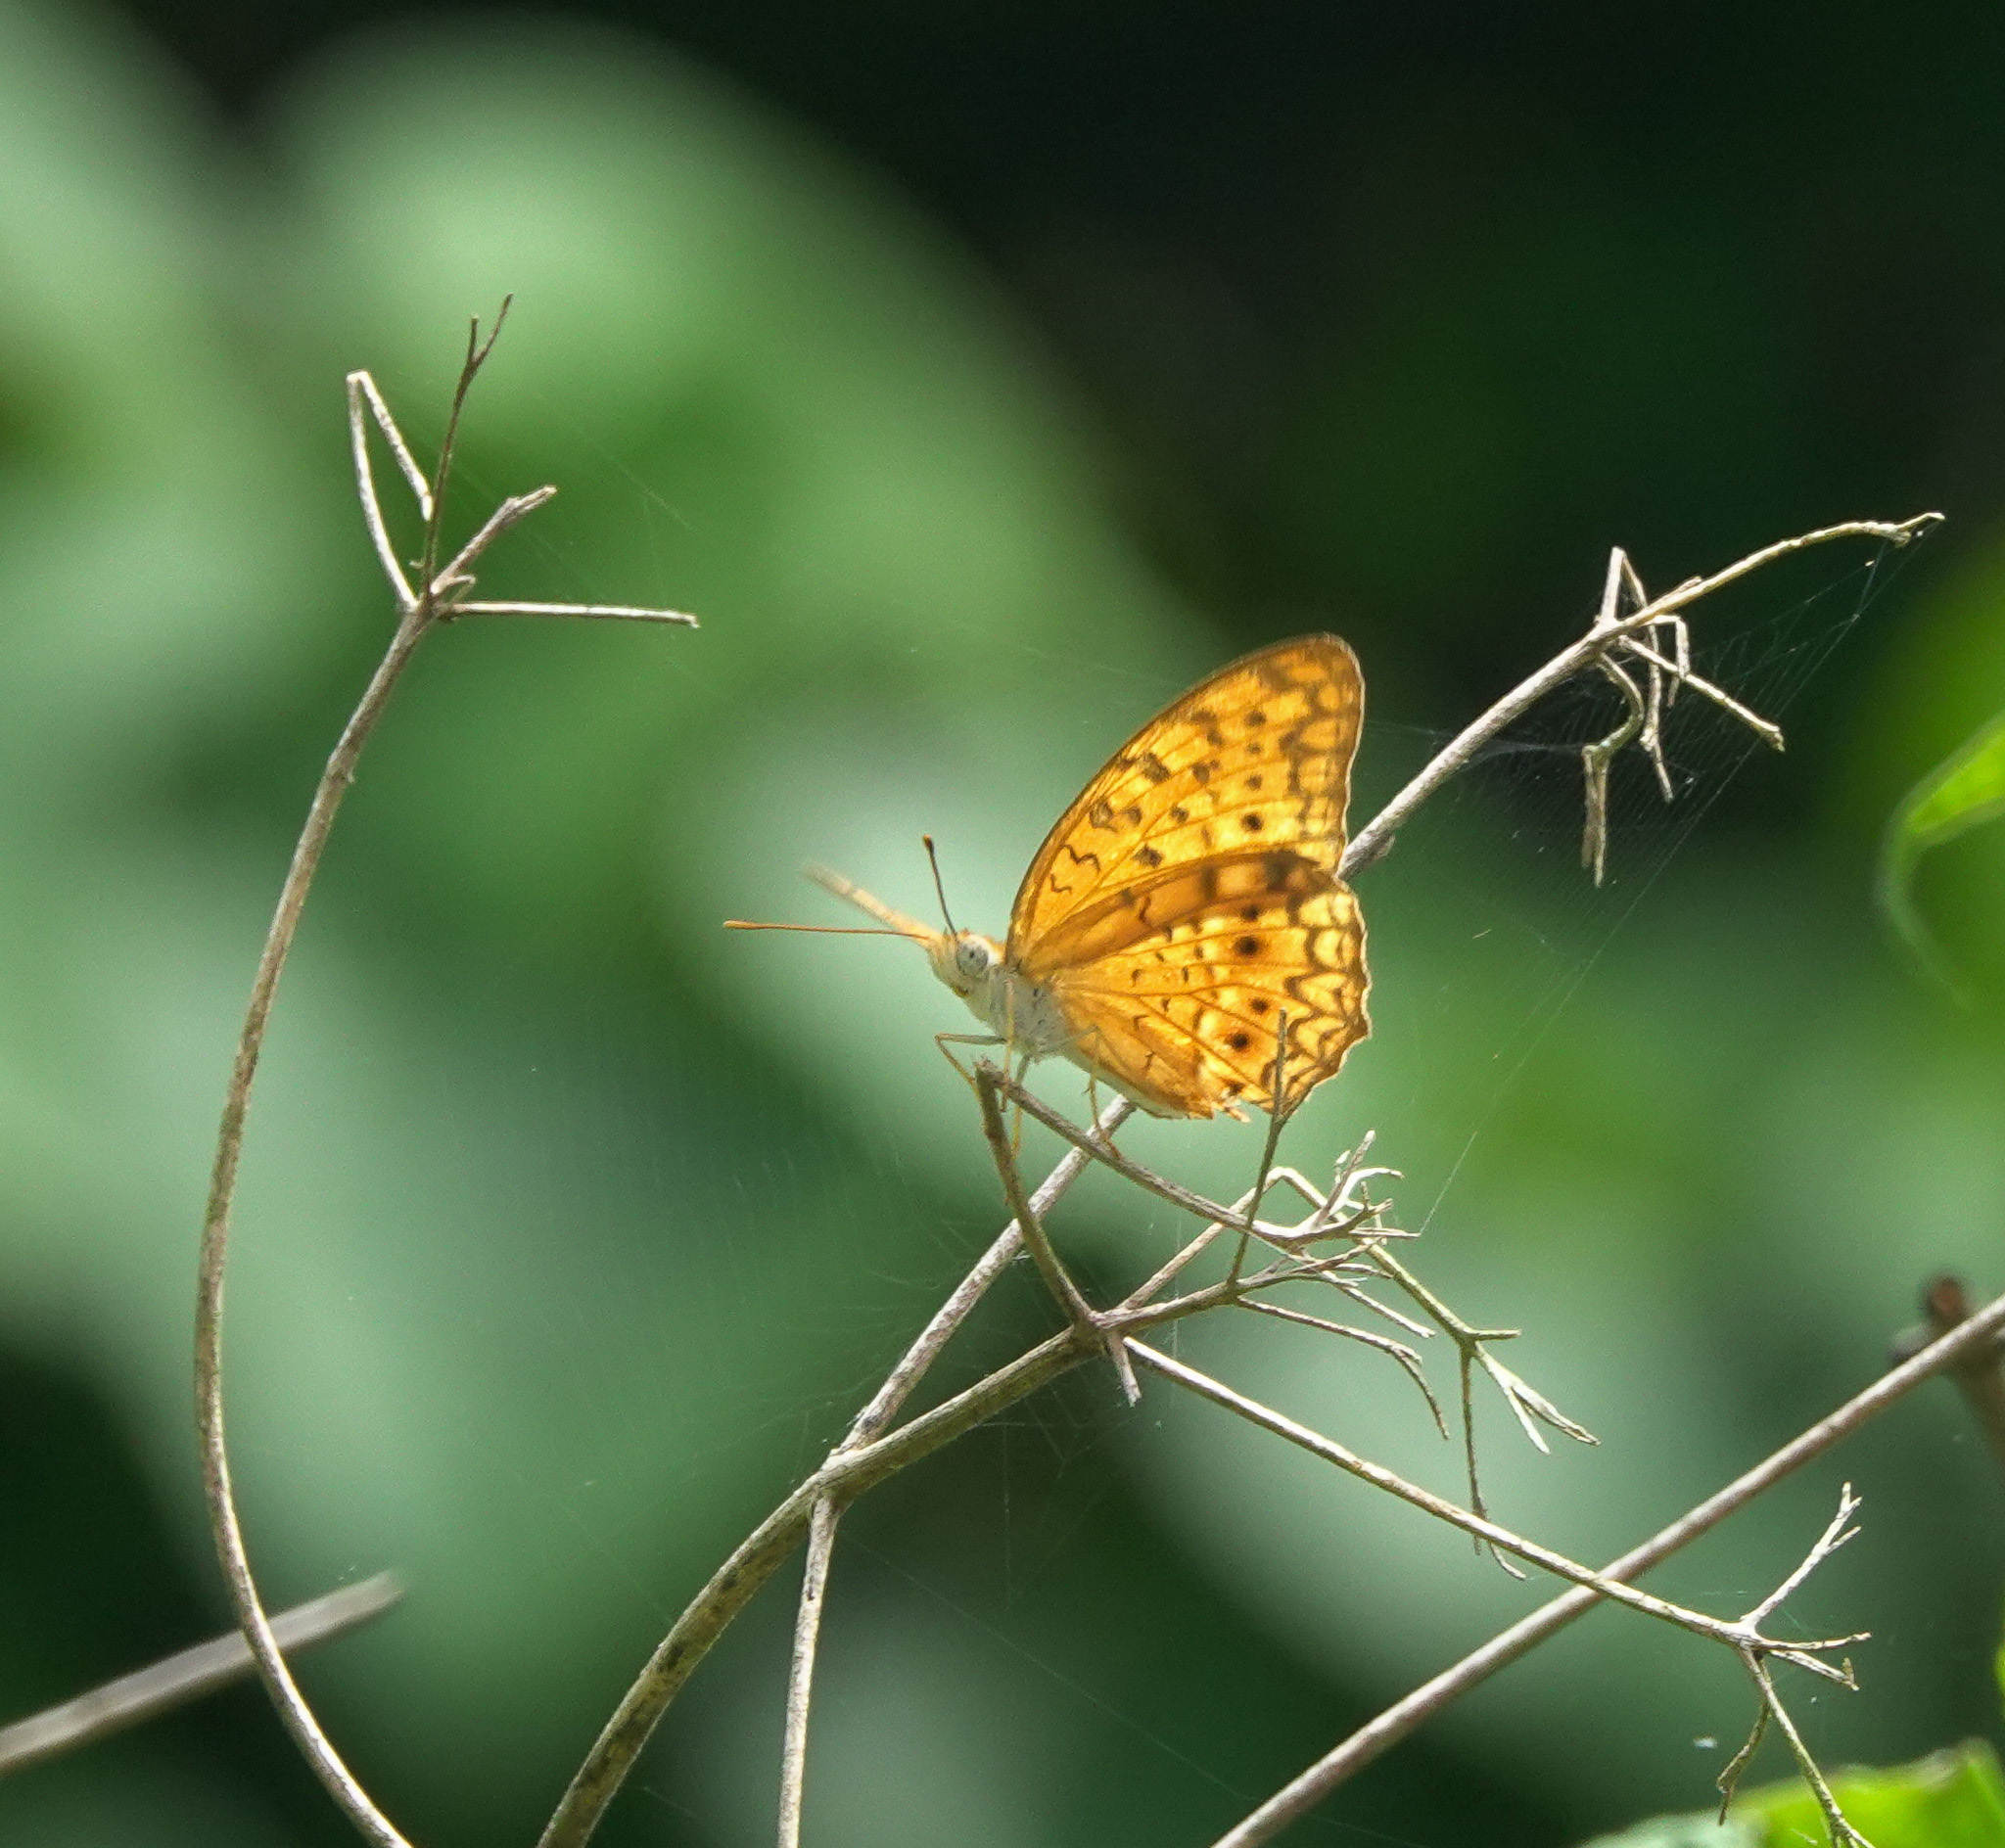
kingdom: Animalia
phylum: Arthropoda
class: Insecta
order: Lepidoptera
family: Nymphalidae
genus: Phalanta
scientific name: Phalanta phalantha
